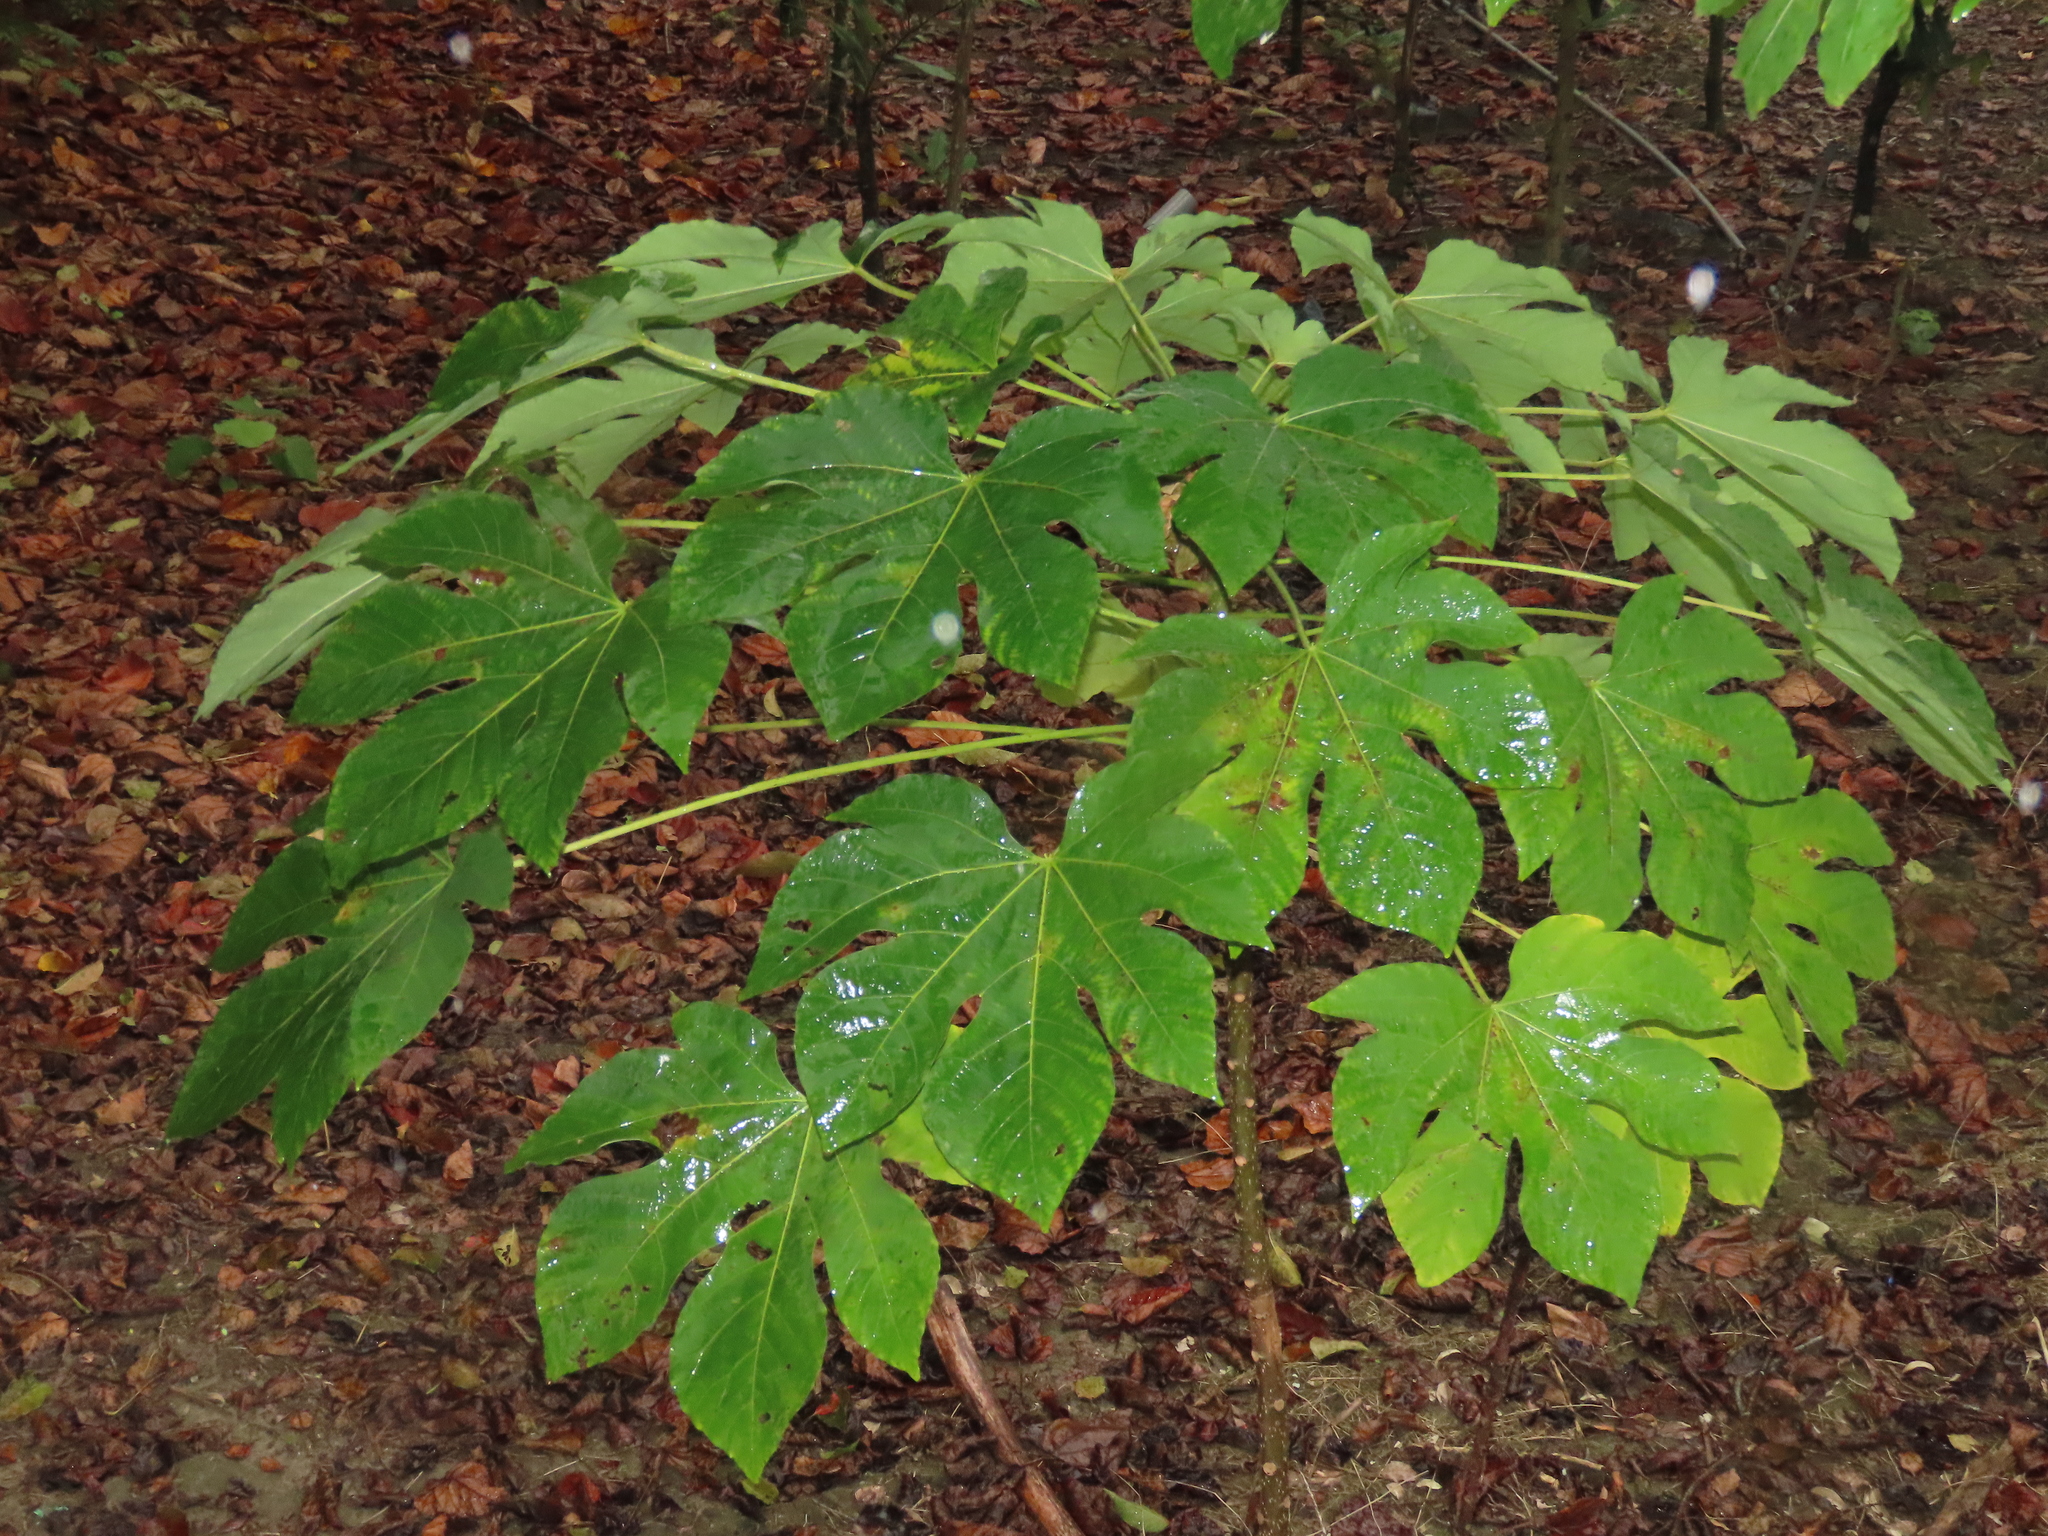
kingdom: Plantae
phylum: Tracheophyta
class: Magnoliopsida
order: Malpighiales
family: Euphorbiaceae
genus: Vernicia
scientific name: Vernicia montana
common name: Mu oil tree
